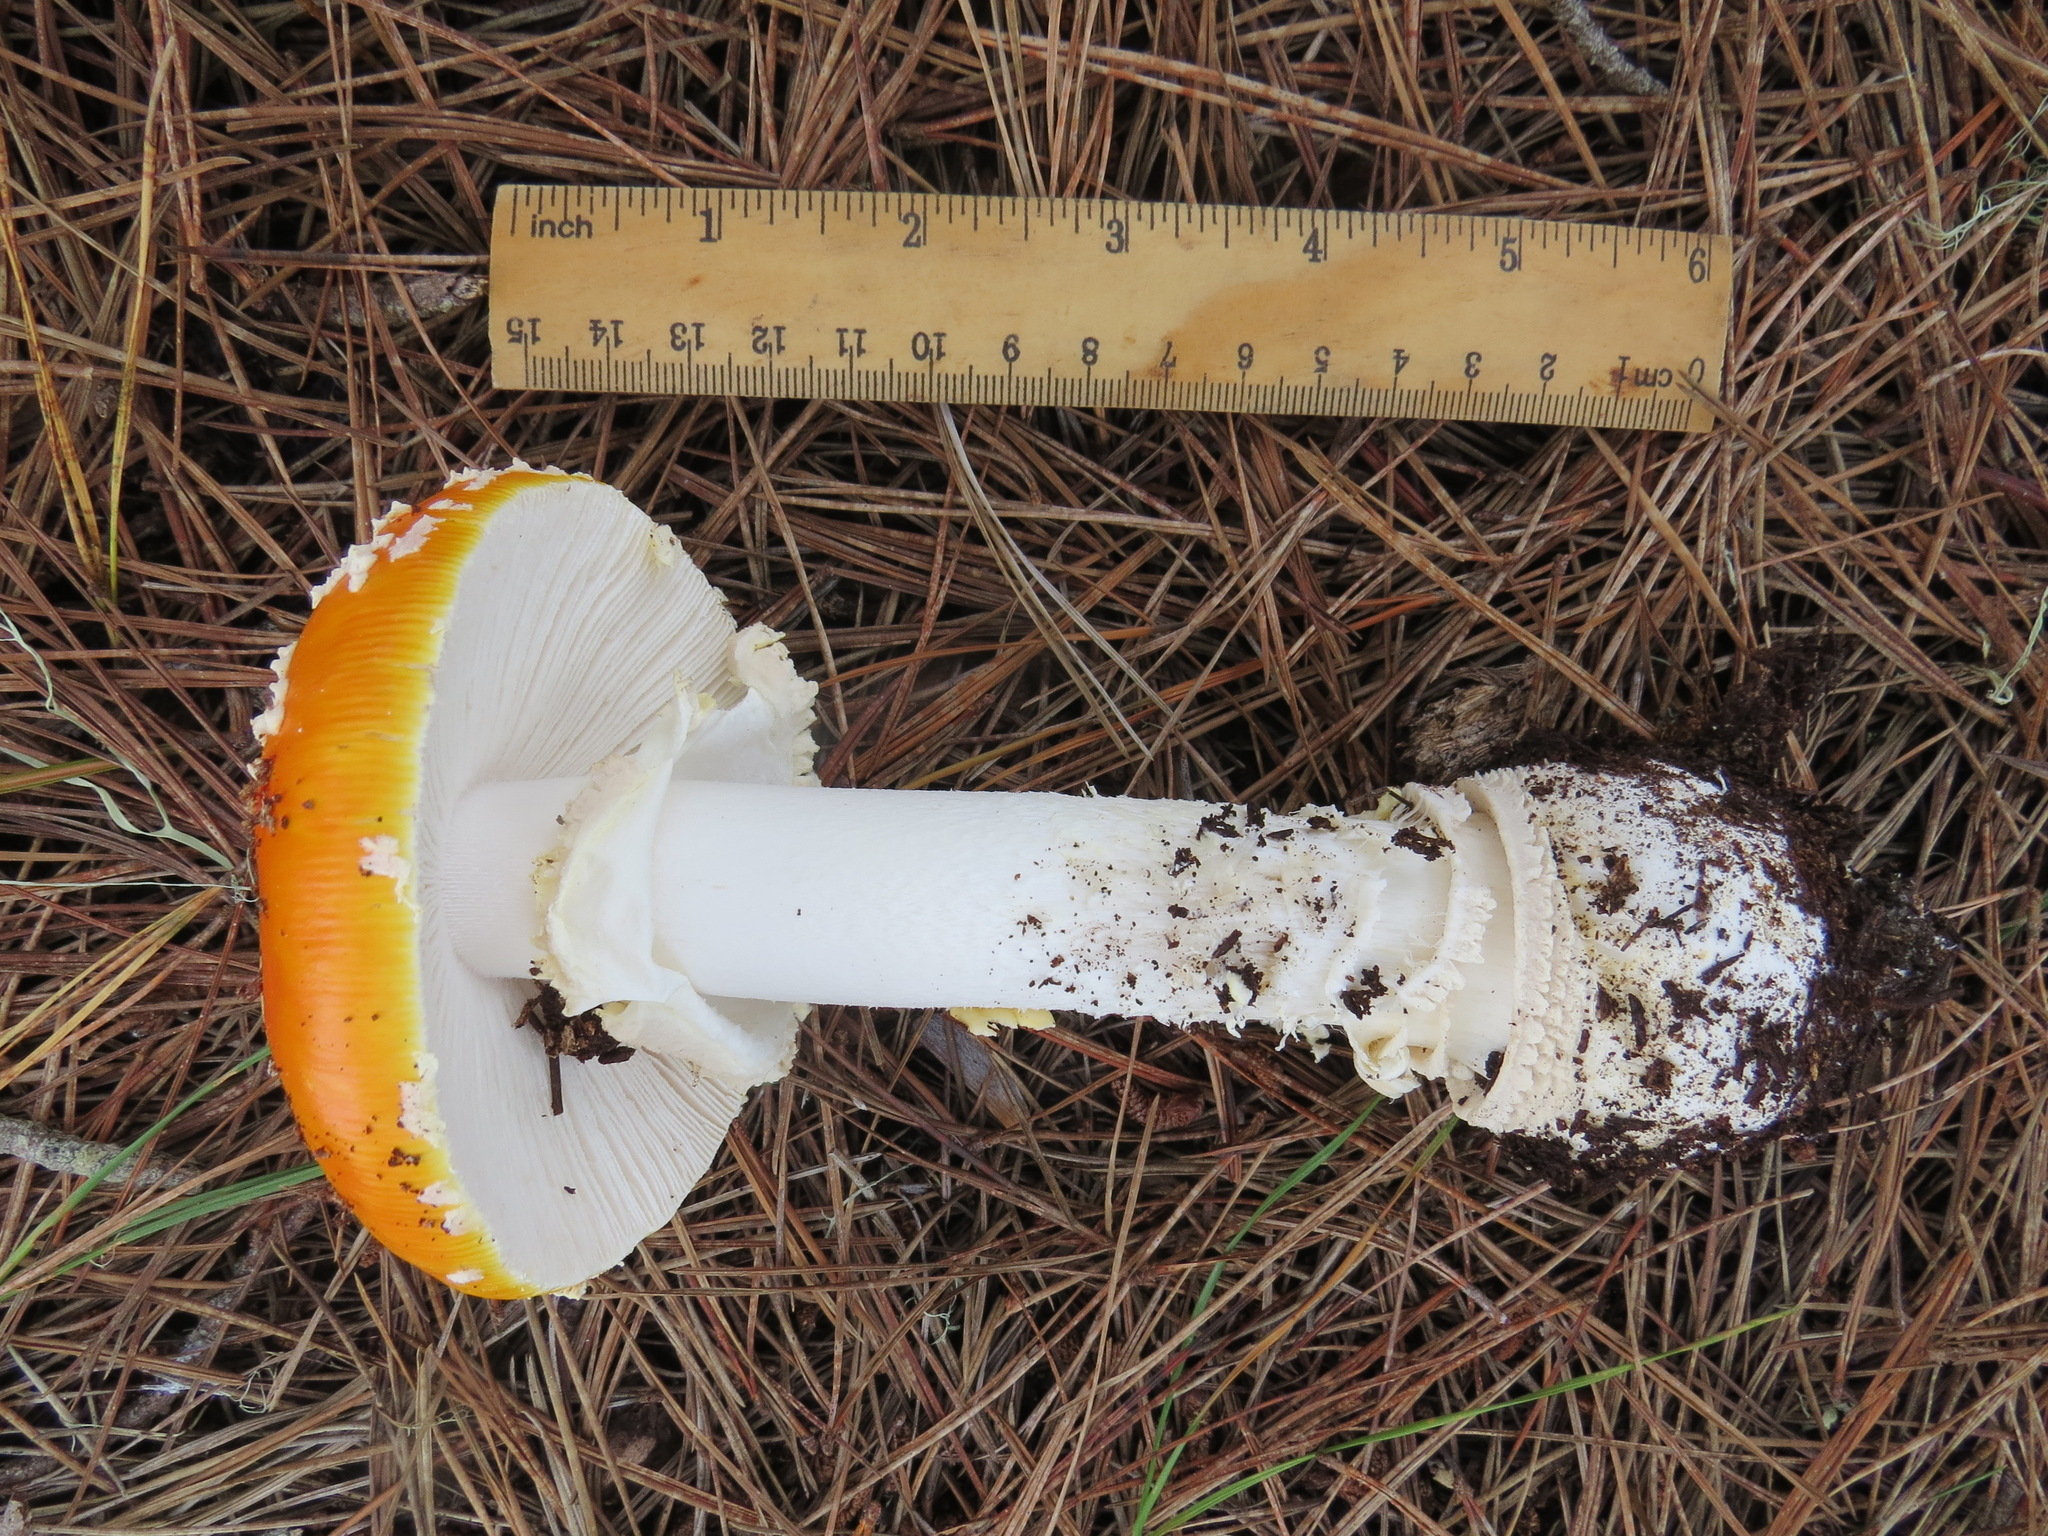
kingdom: Fungi
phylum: Basidiomycota
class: Agaricomycetes
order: Agaricales
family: Amanitaceae
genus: Amanita
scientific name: Amanita muscaria
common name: Fly agaric
